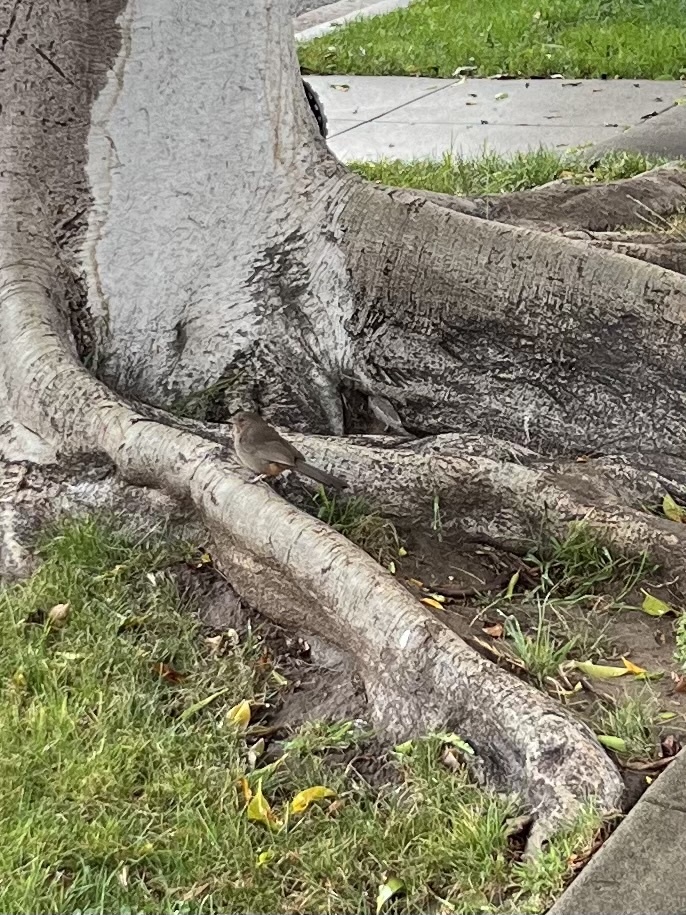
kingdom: Animalia
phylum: Chordata
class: Aves
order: Passeriformes
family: Passerellidae
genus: Melozone
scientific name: Melozone crissalis
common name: California towhee
